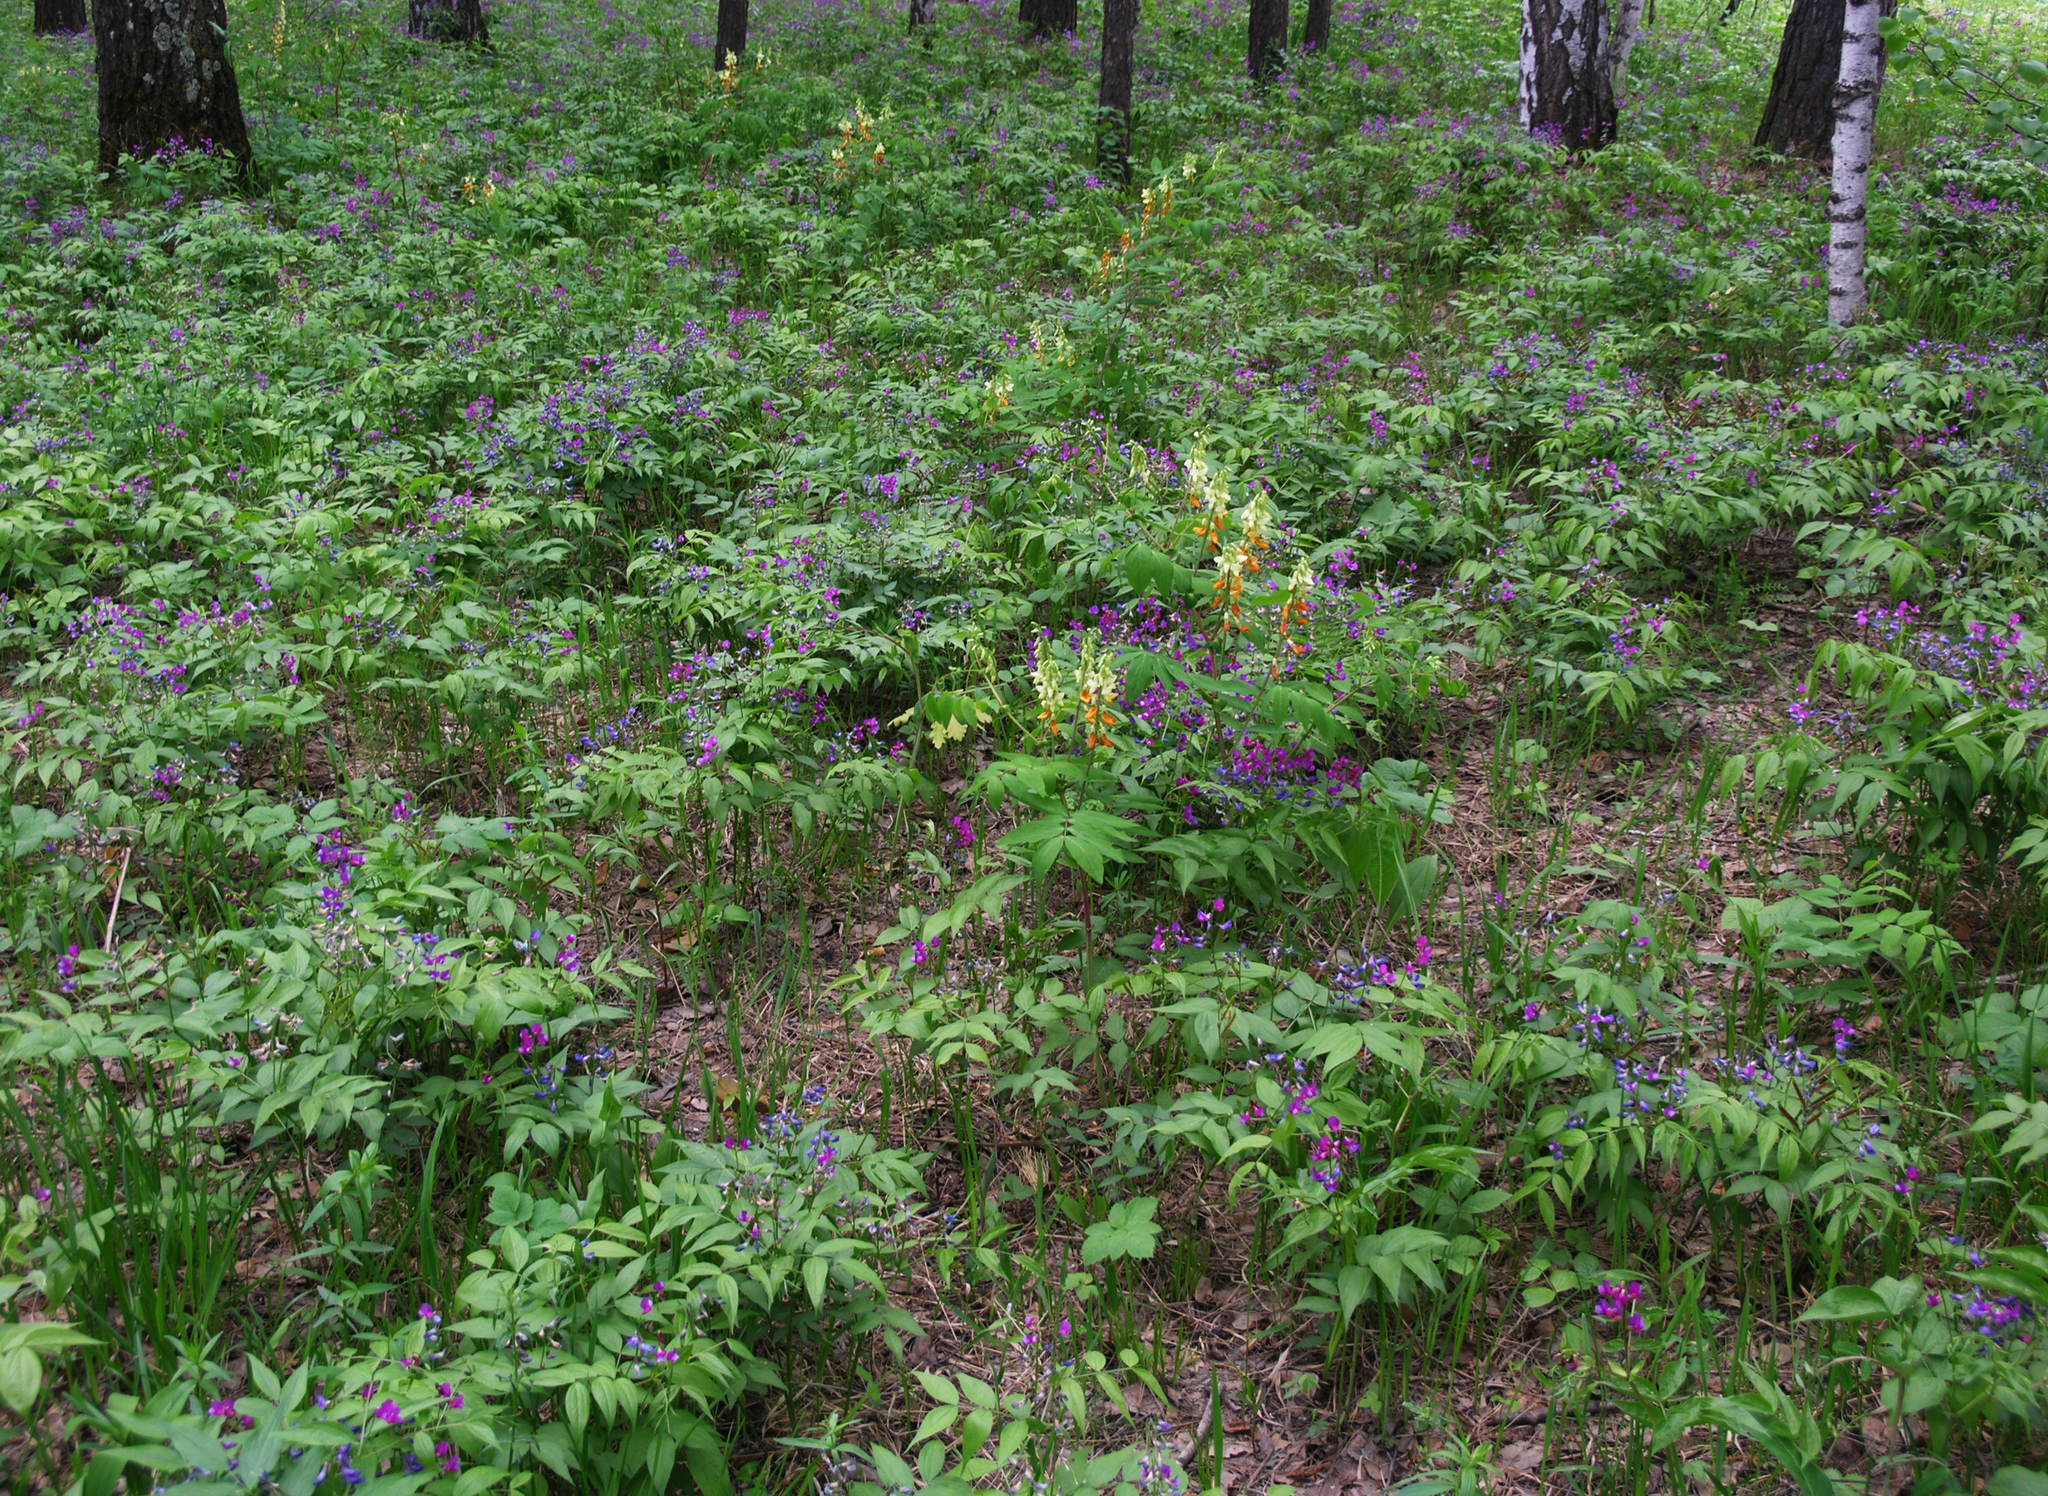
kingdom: Plantae
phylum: Tracheophyta
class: Magnoliopsida
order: Fabales
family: Fabaceae
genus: Lathyrus
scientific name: Lathyrus gmelinii
